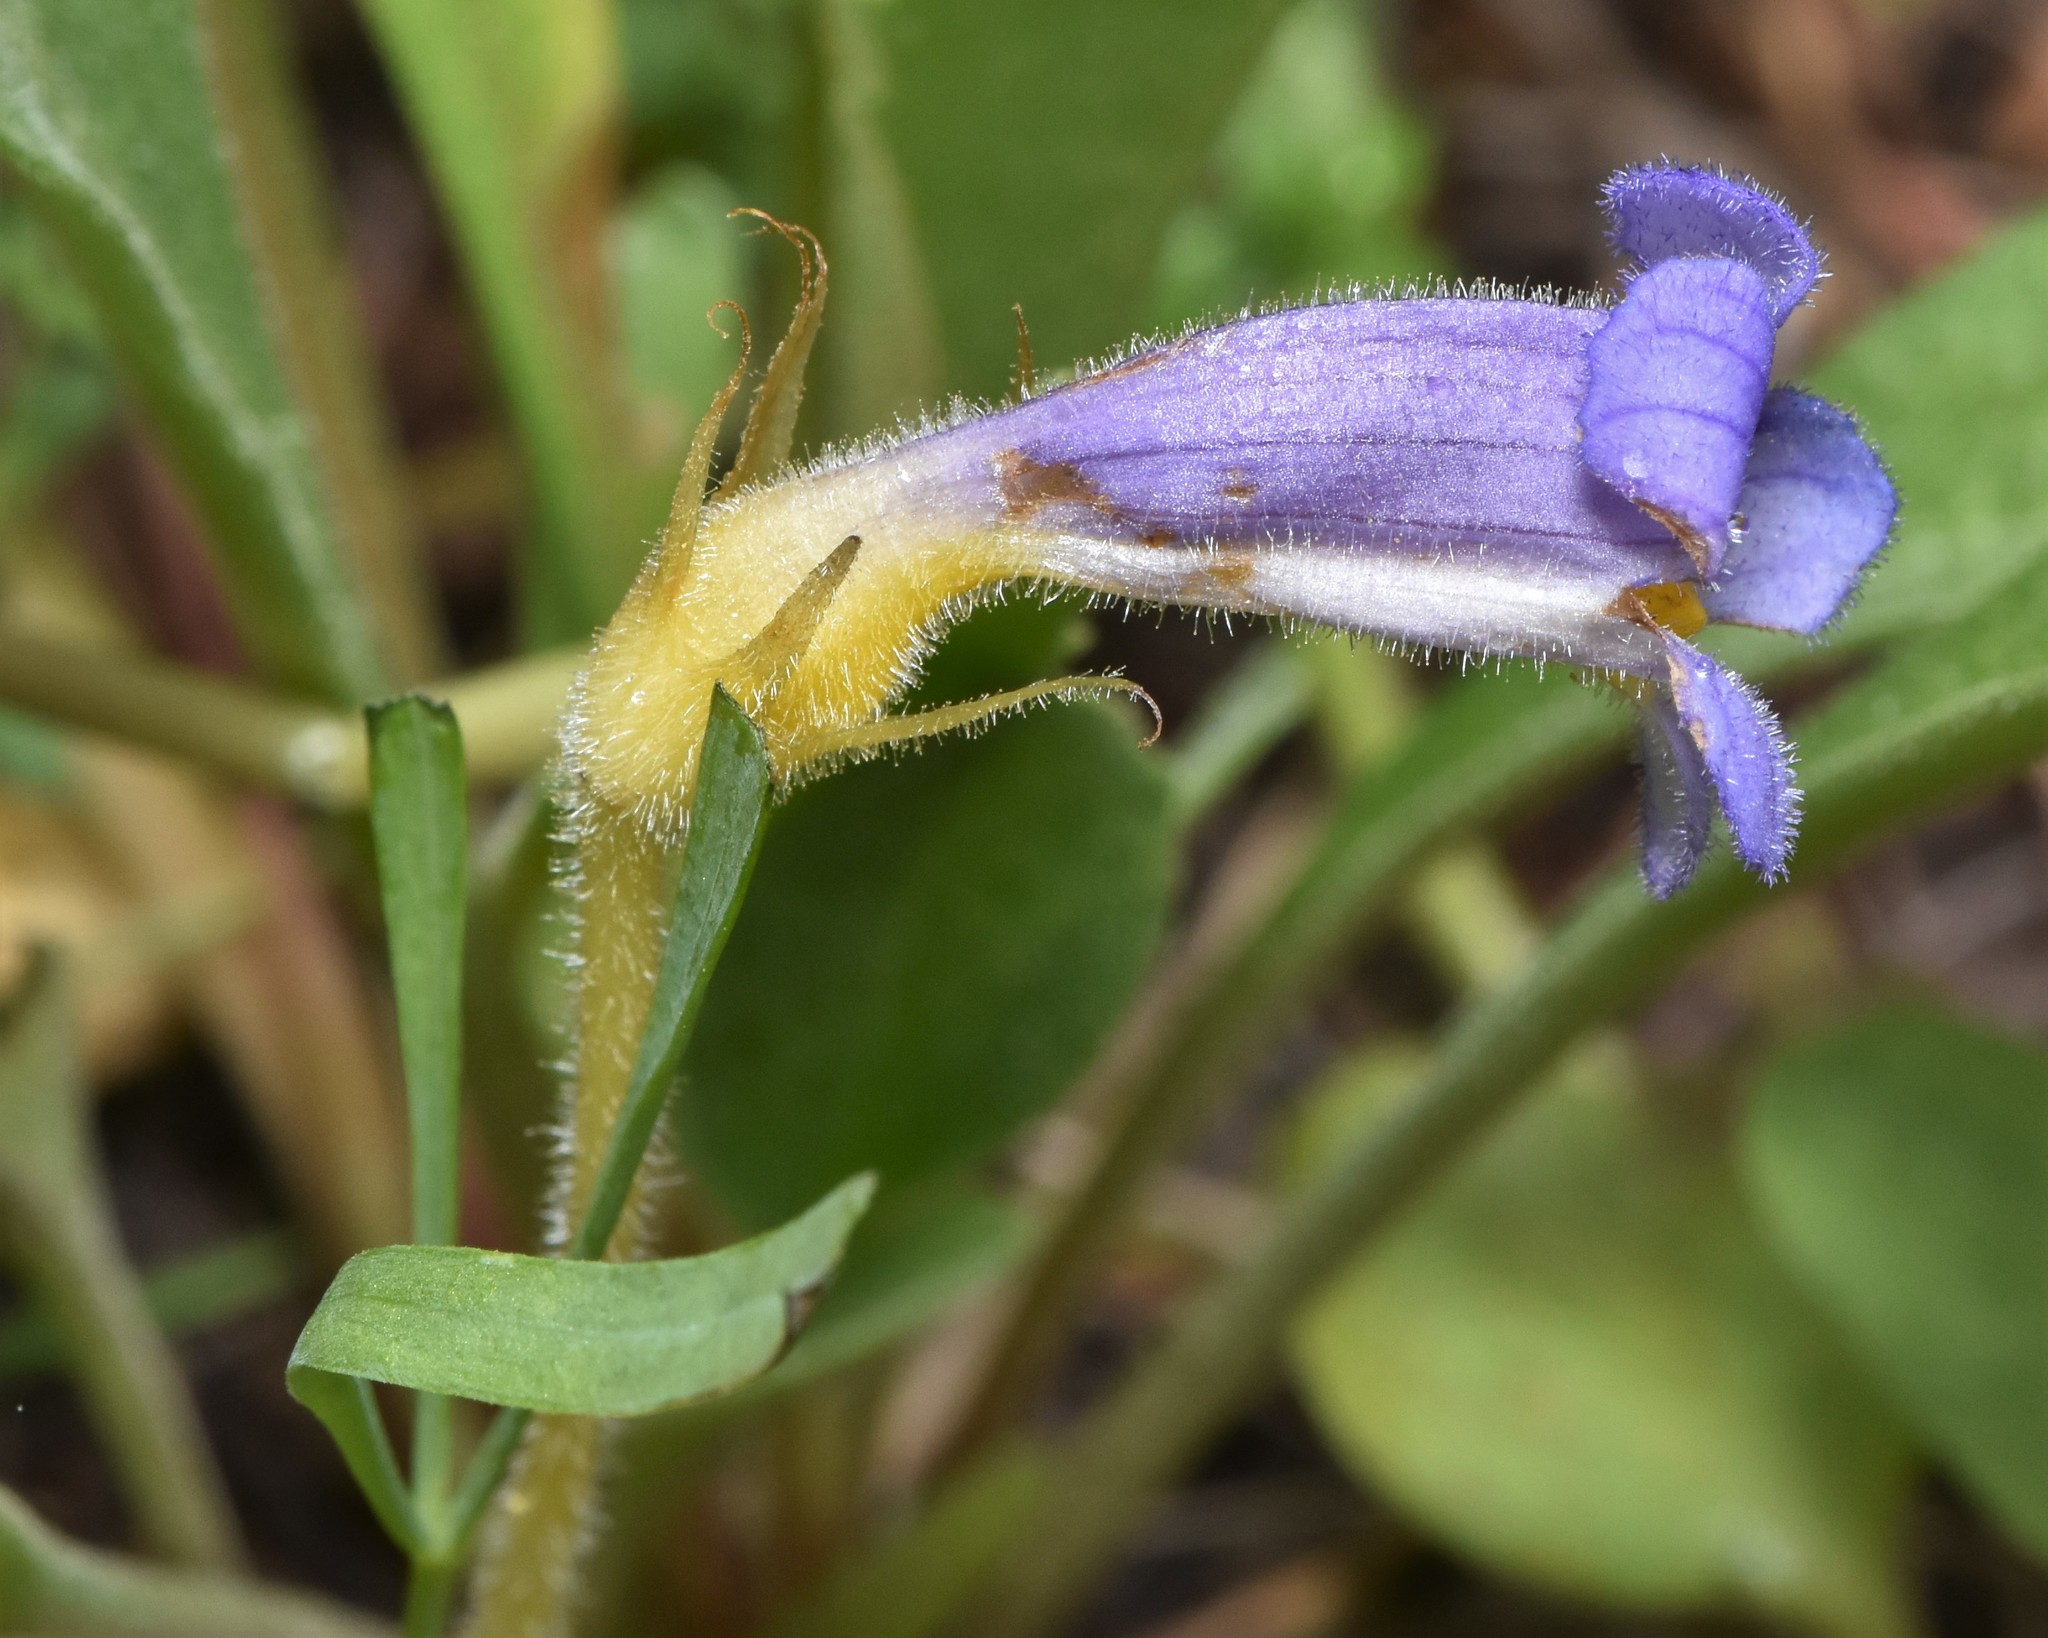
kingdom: Plantae
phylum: Tracheophyta
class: Magnoliopsida
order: Lamiales
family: Orobanchaceae
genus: Aphyllon
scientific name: Aphyllon uniflorum
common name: One-flowered broomrape
